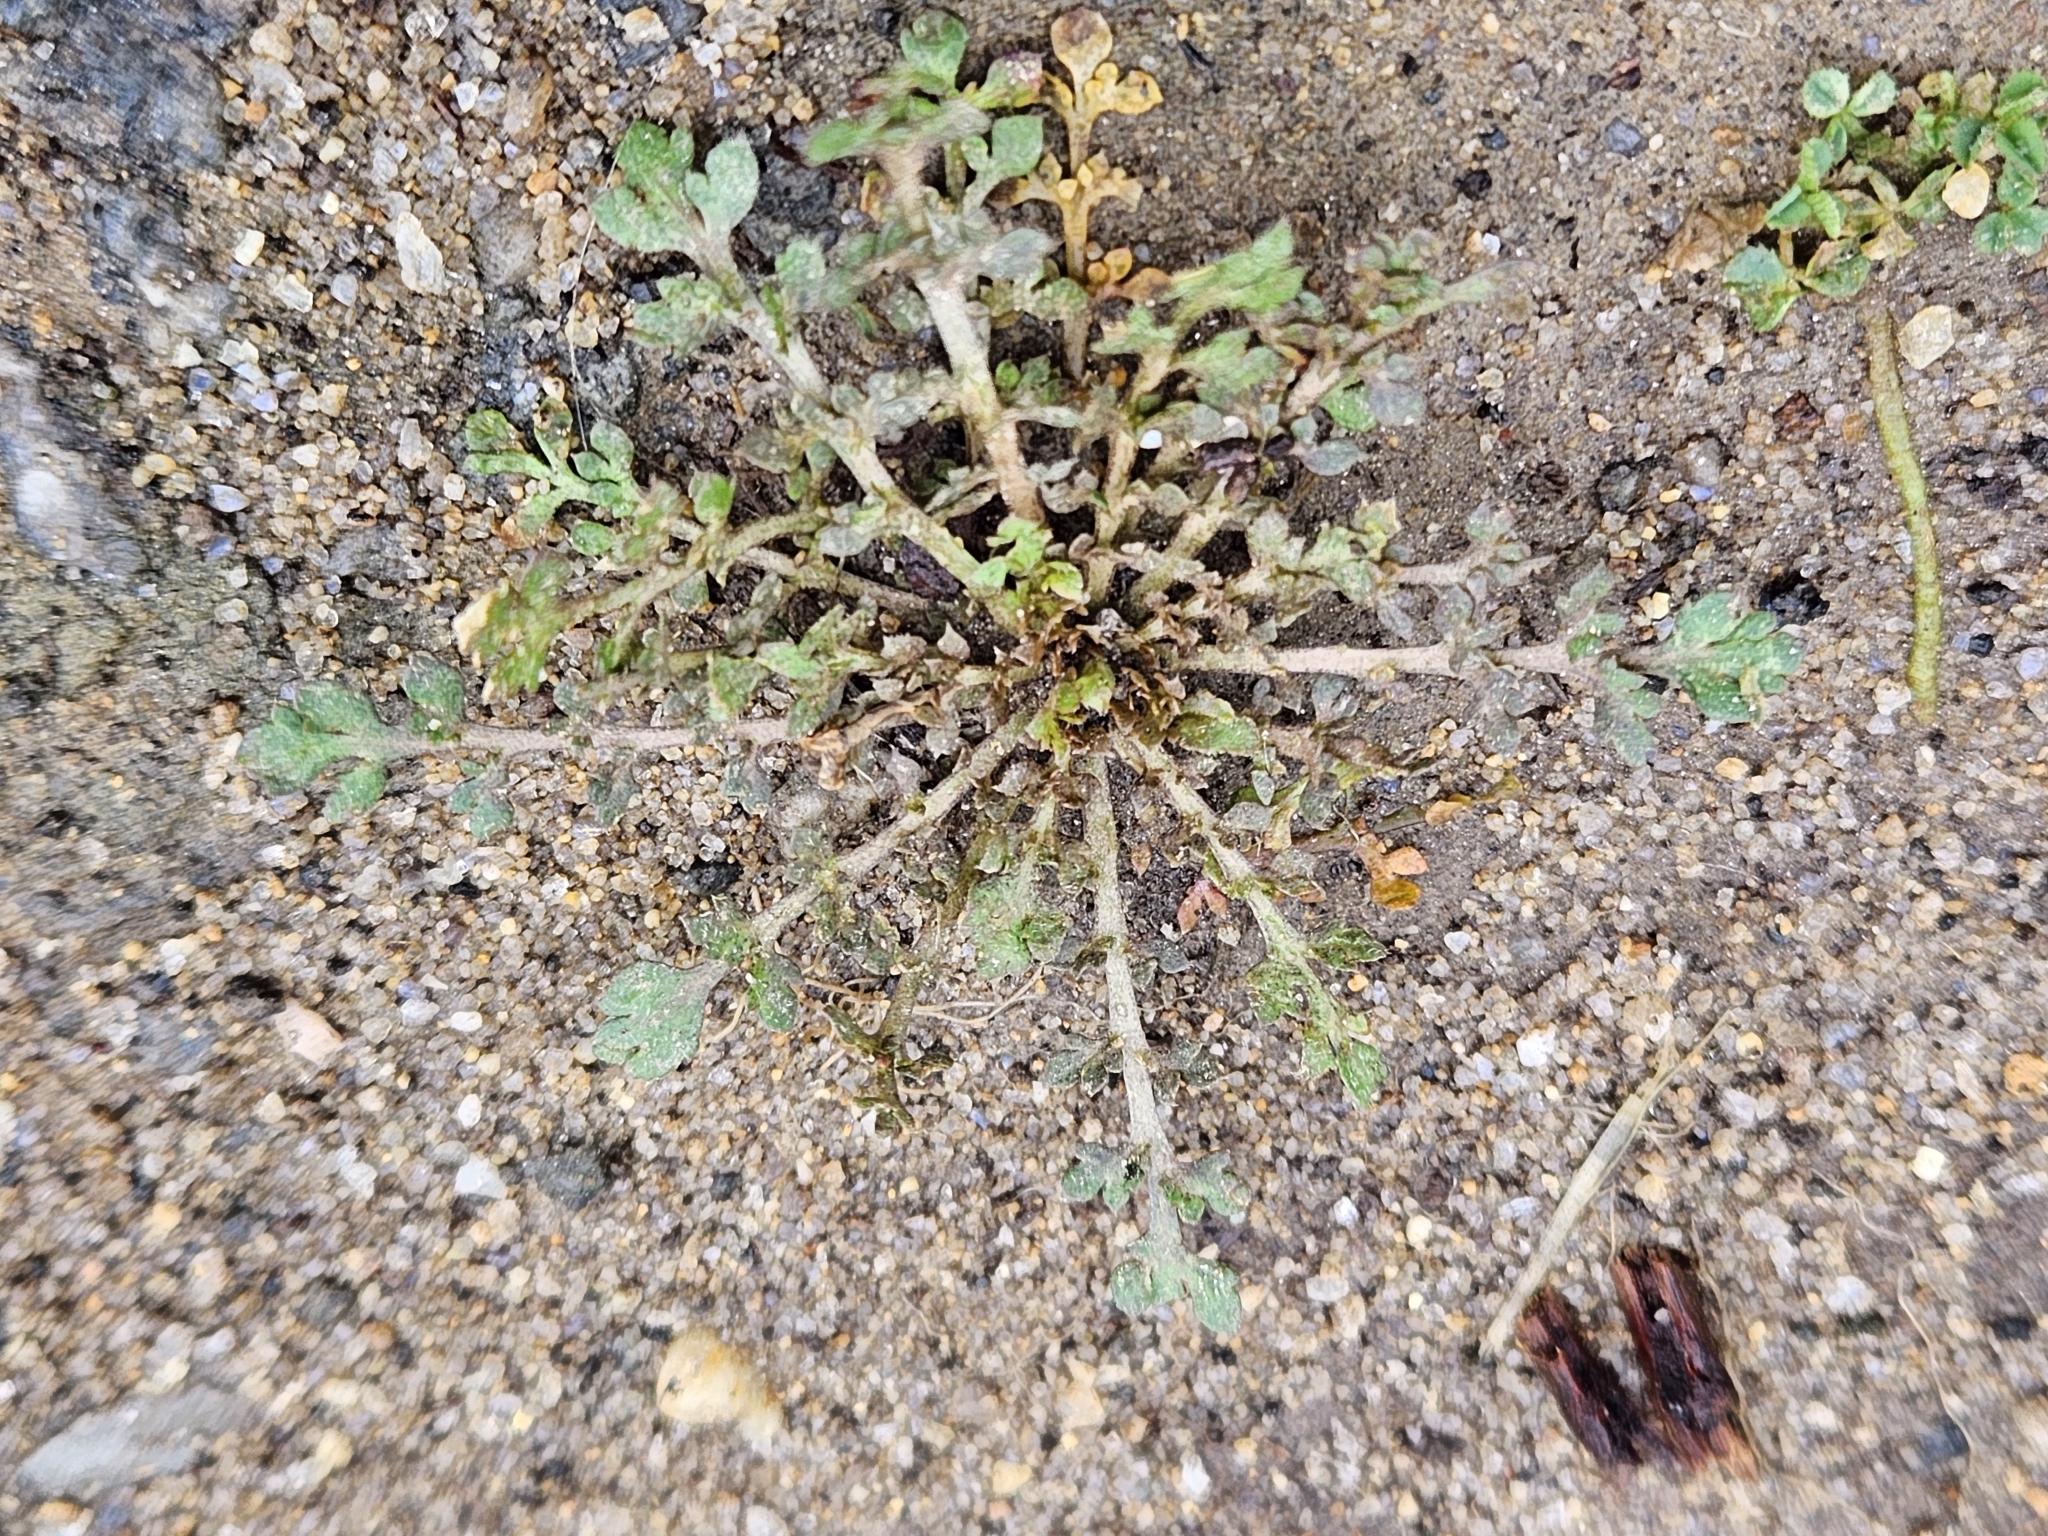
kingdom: Plantae
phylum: Tracheophyta
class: Magnoliopsida
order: Brassicales
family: Brassicaceae
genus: Capsella
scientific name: Capsella bursa-pastoris
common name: Shepherd's purse
